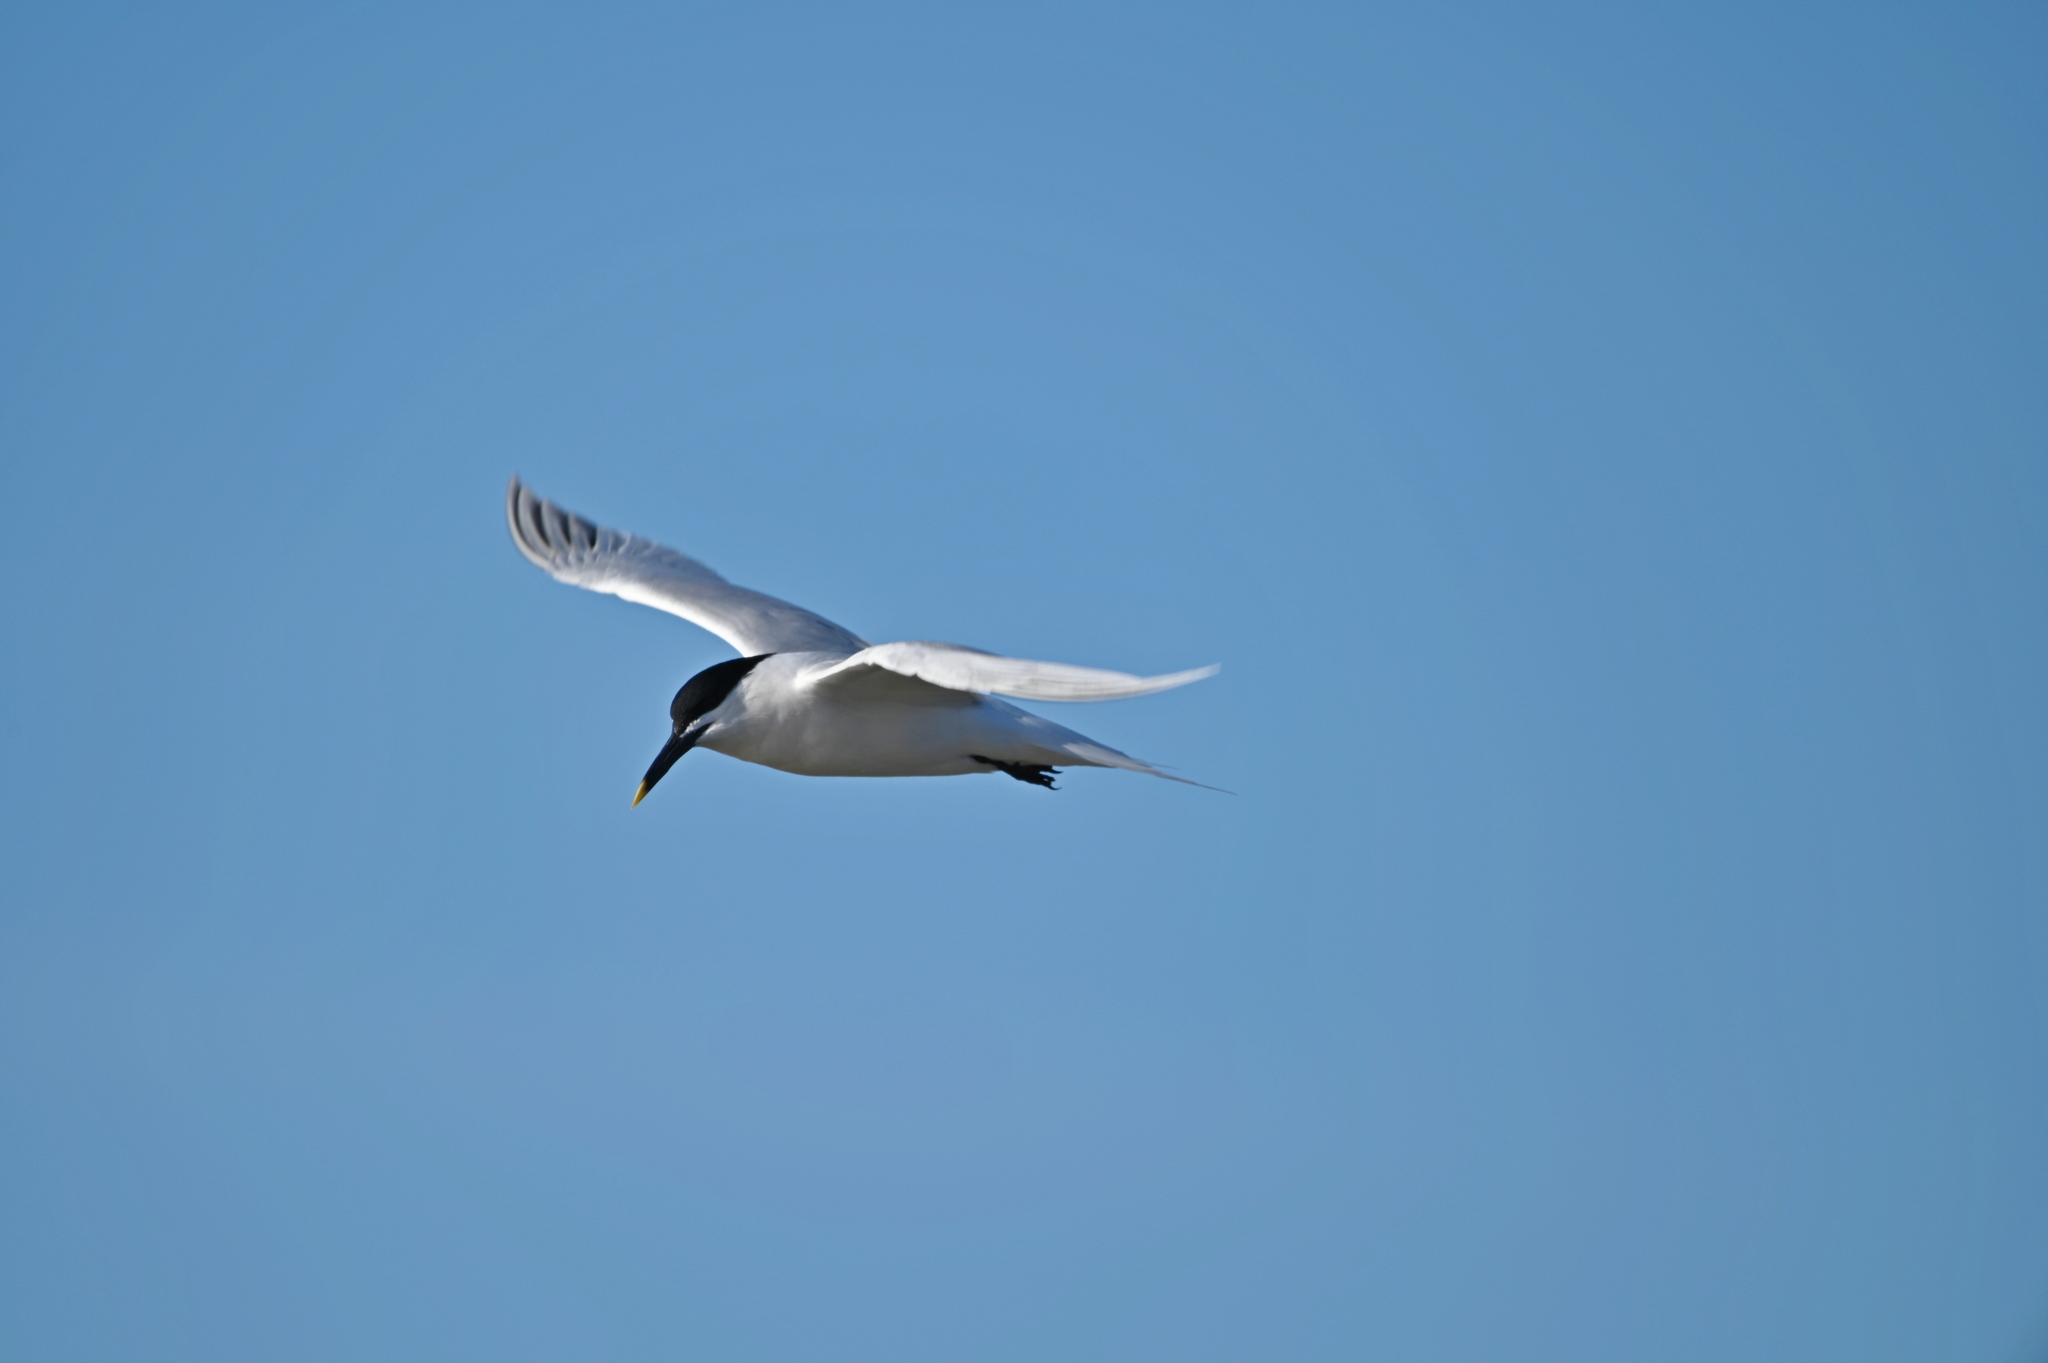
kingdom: Animalia
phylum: Chordata
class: Aves
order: Charadriiformes
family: Laridae
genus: Thalasseus
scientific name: Thalasseus sandvicensis
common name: Sandwich tern
